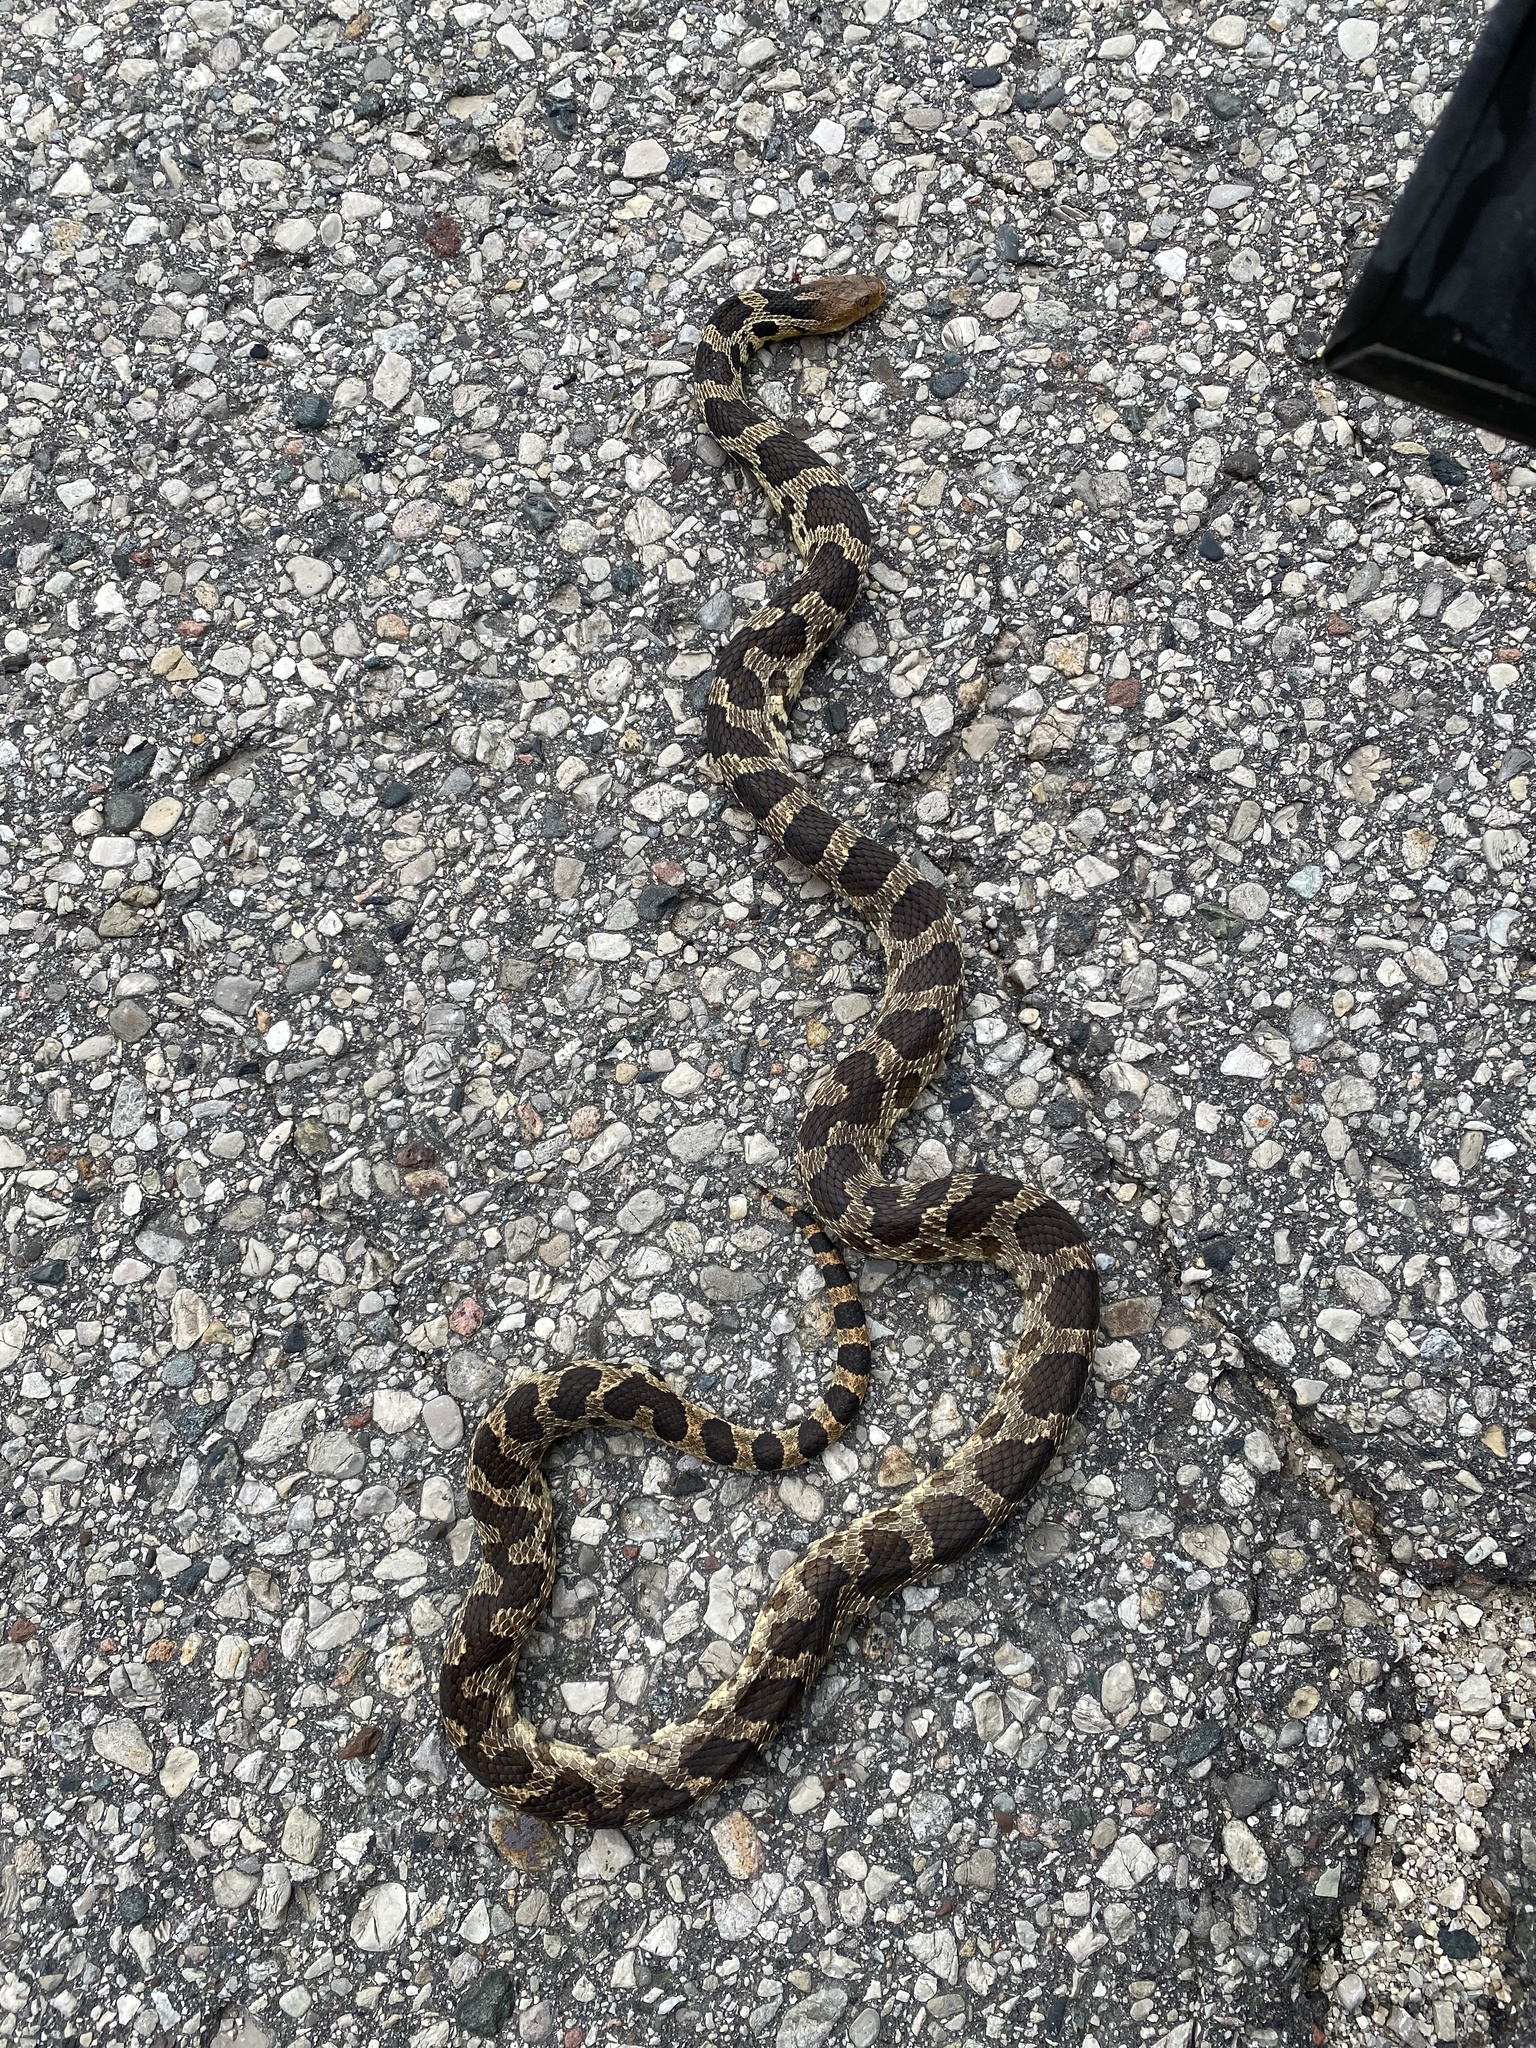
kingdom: Animalia
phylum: Chordata
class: Squamata
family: Colubridae
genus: Pantherophis
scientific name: Pantherophis vulpinus
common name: Eastern fox snake
